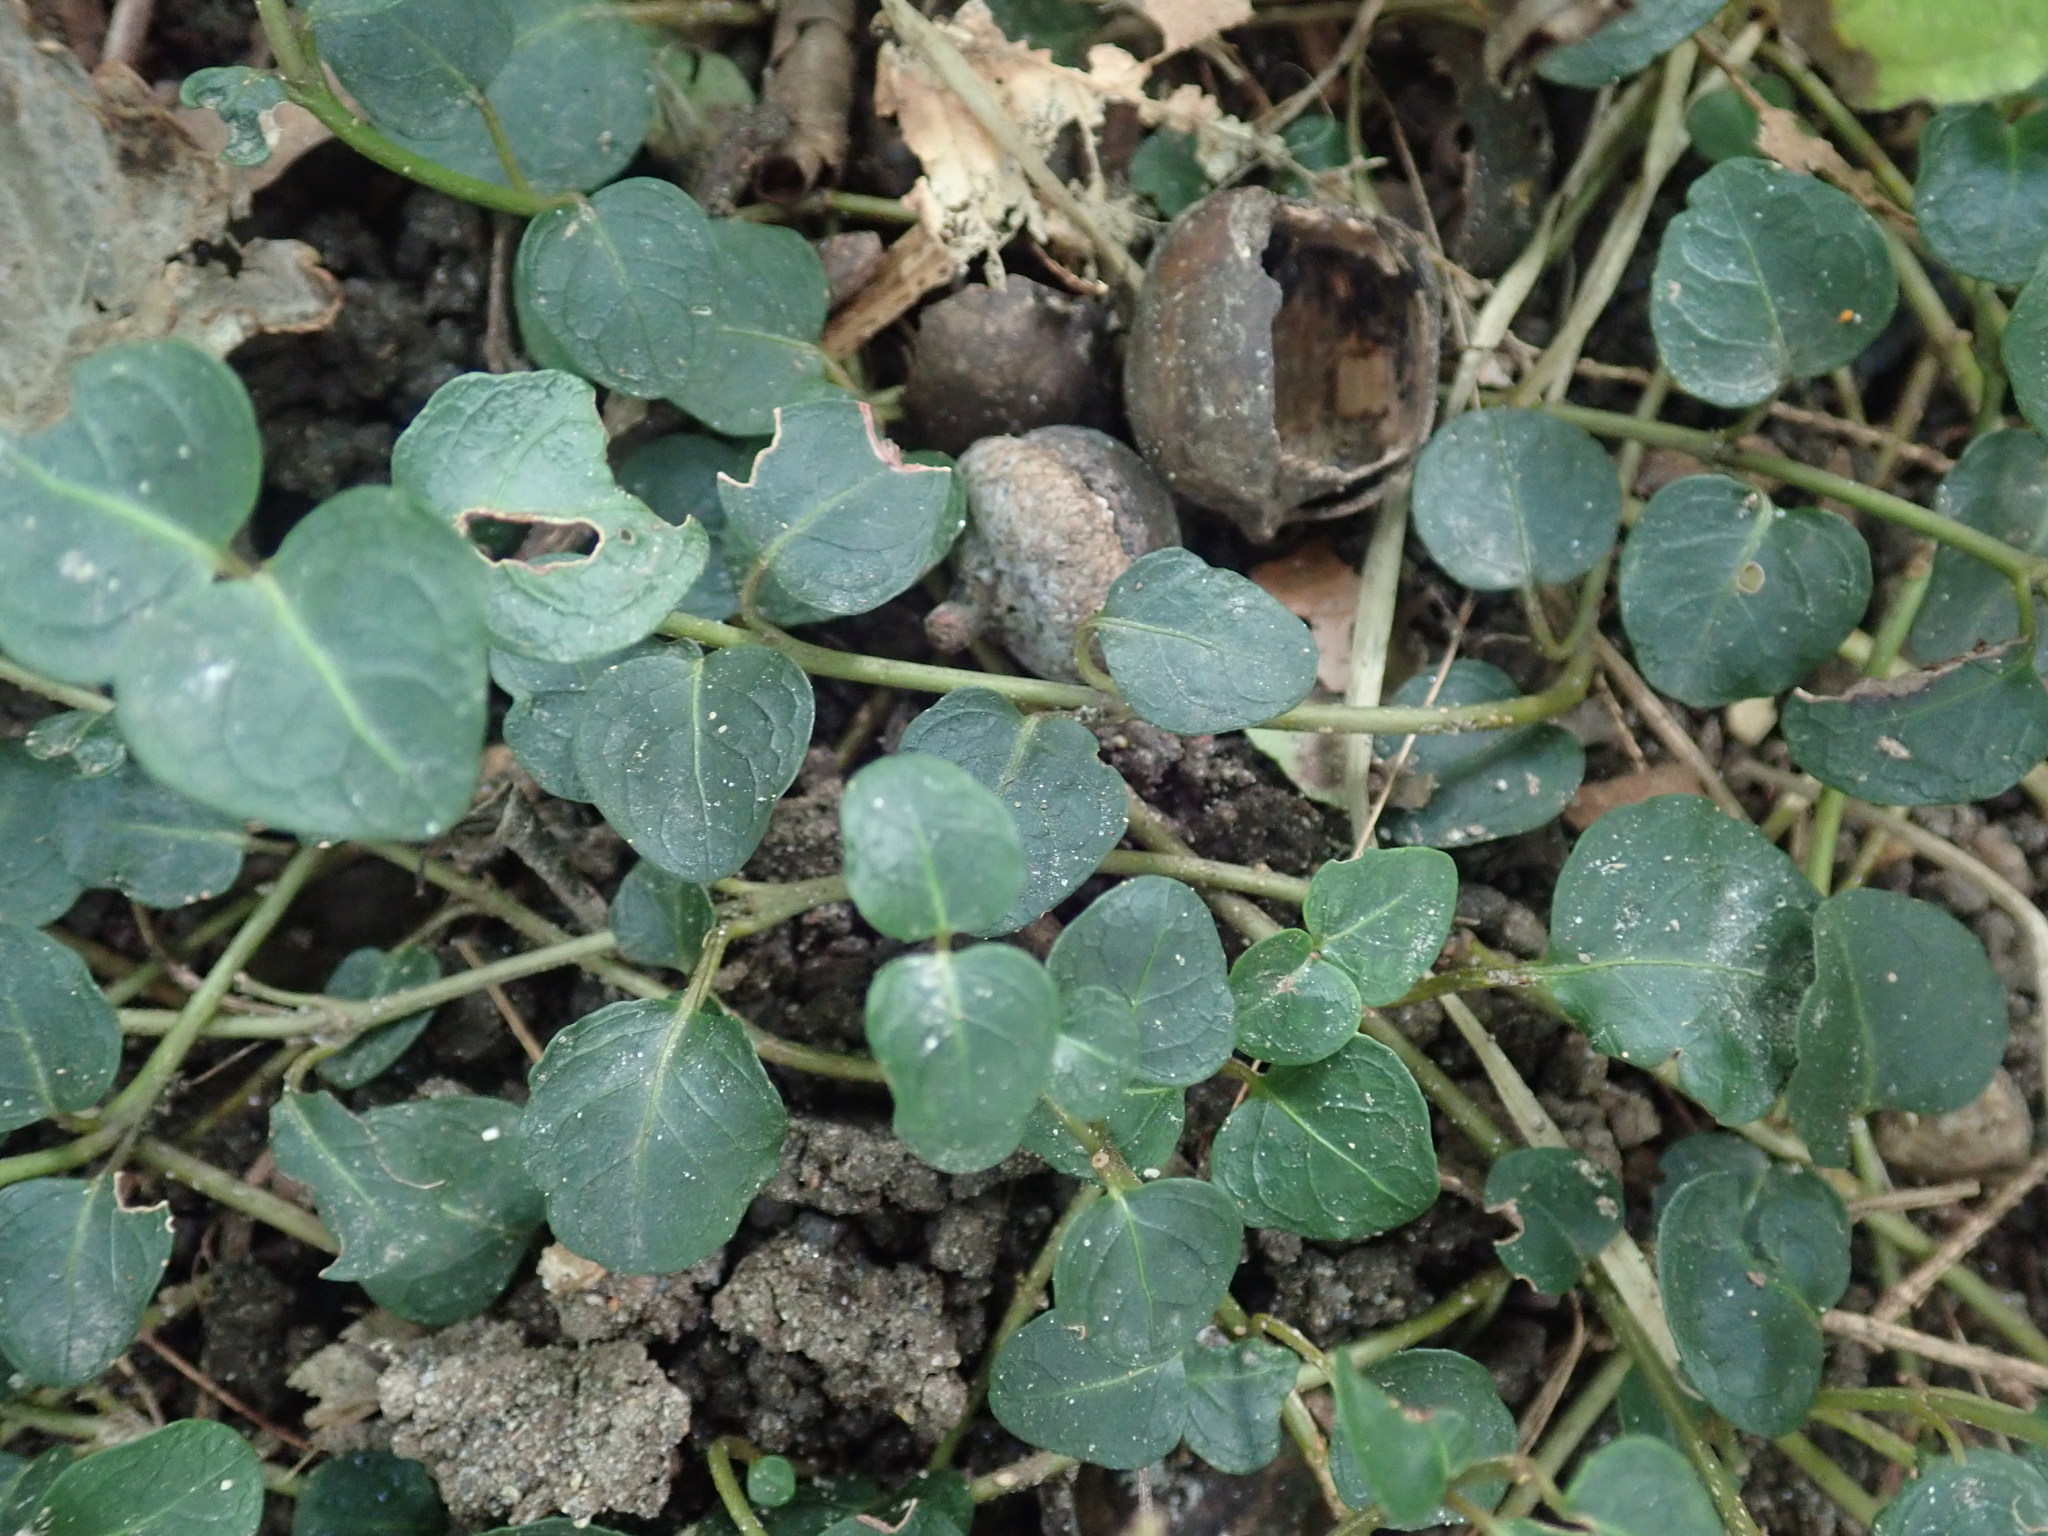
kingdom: Plantae
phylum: Tracheophyta
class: Magnoliopsida
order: Gentianales
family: Rubiaceae
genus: Mitchella
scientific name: Mitchella repens
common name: Partridge-berry
